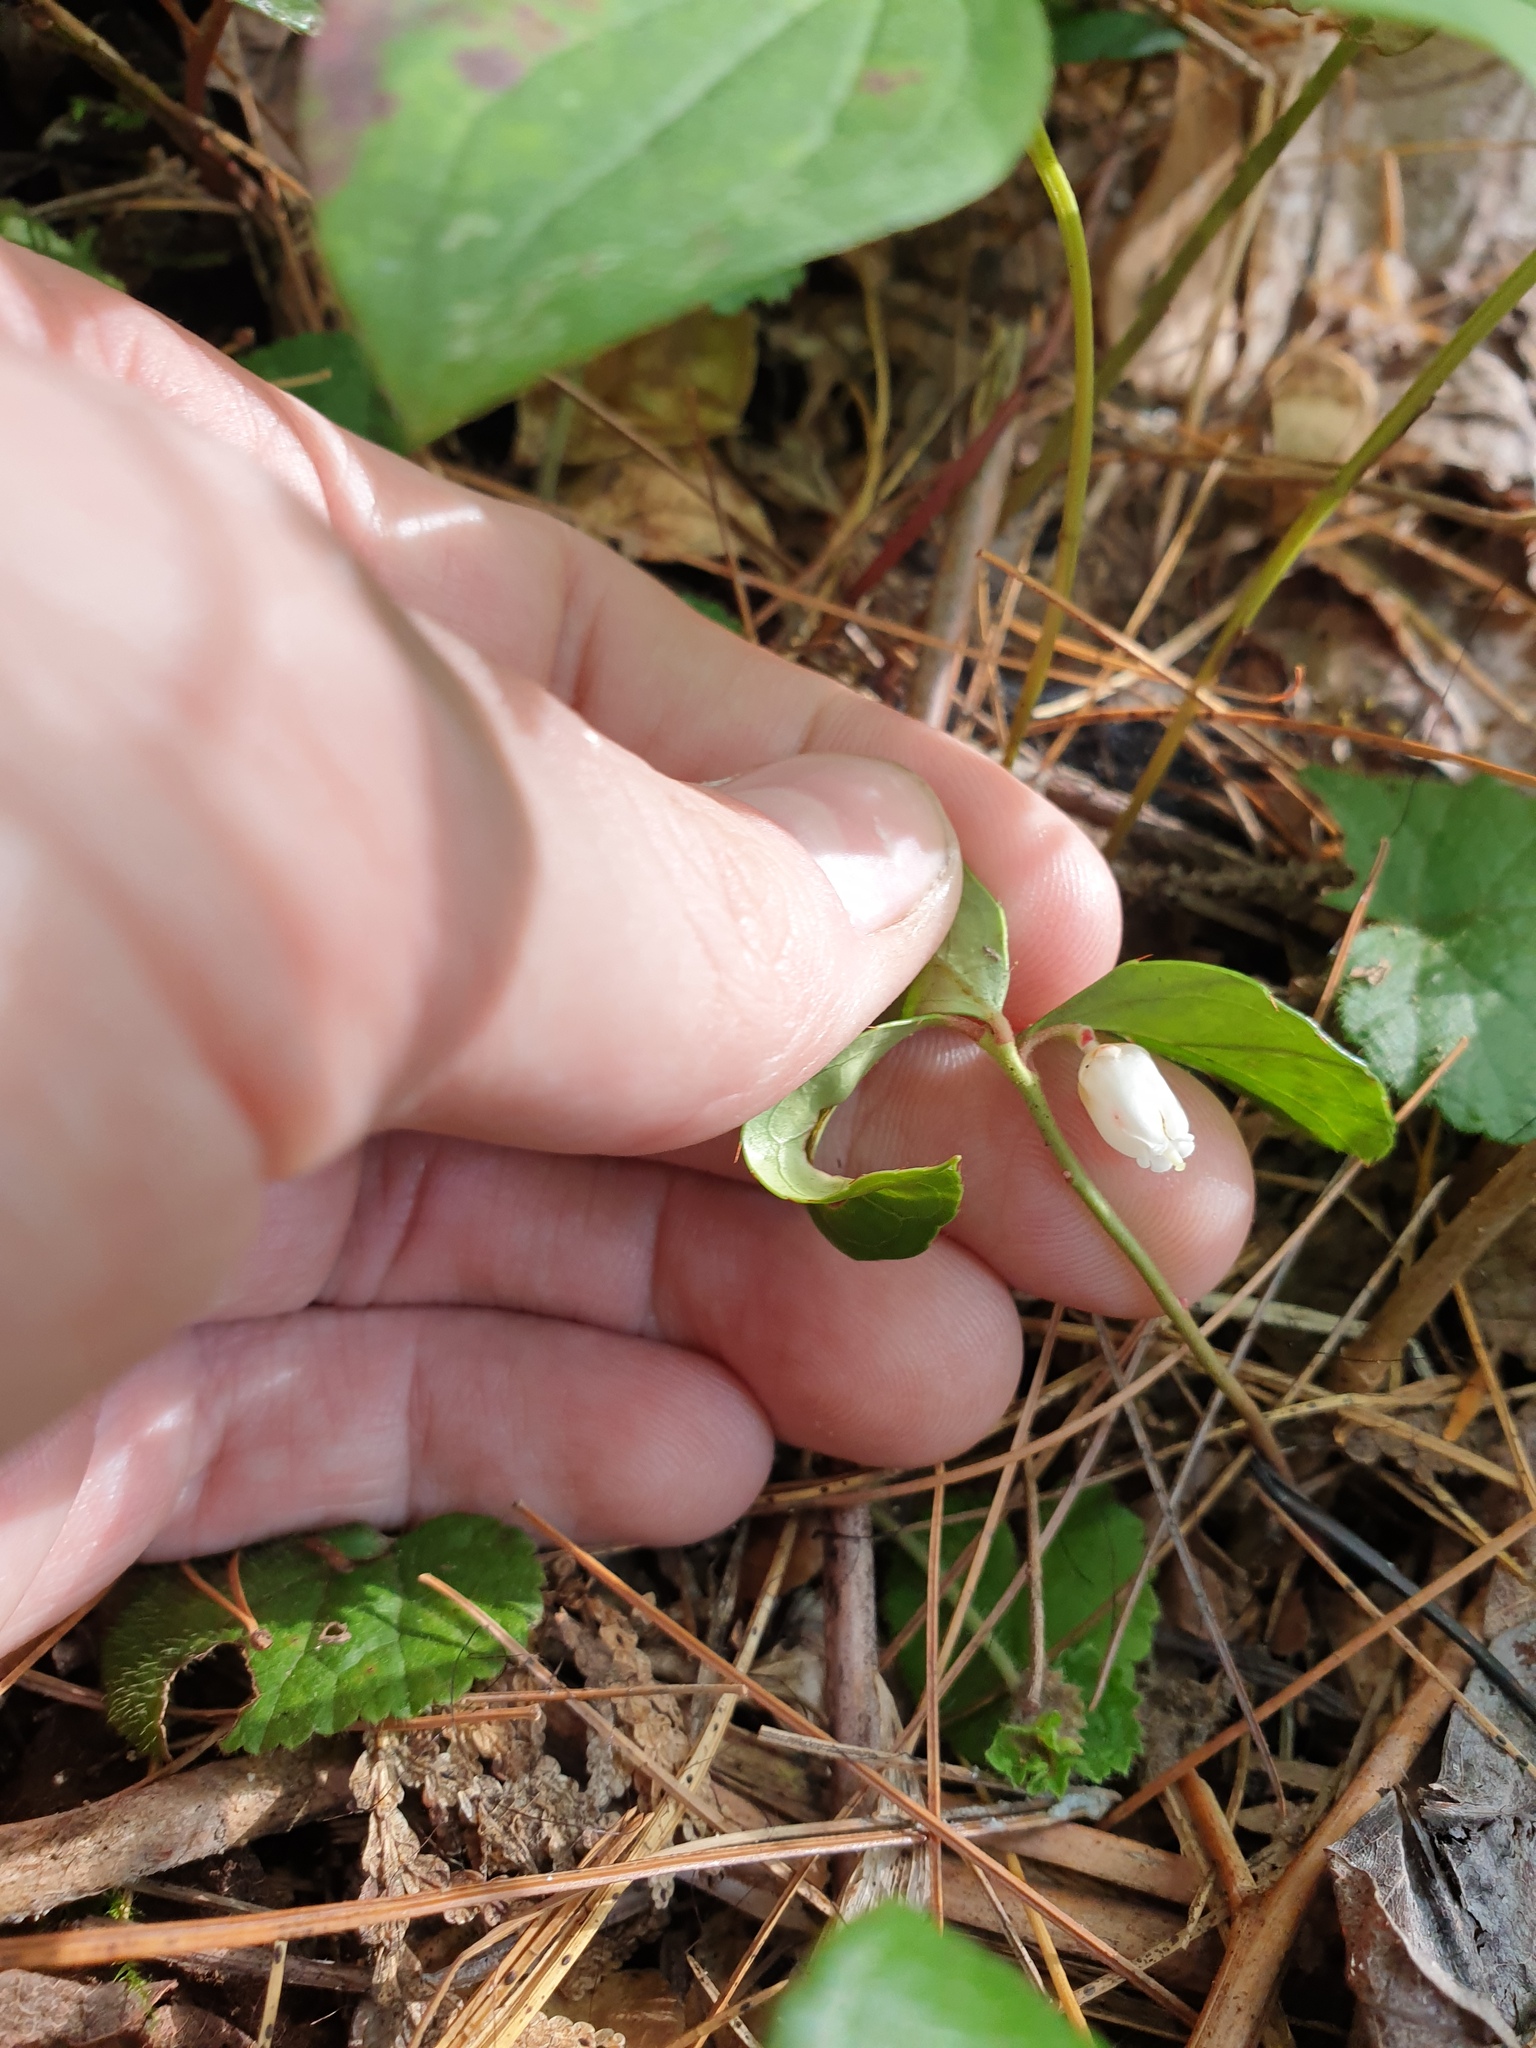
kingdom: Plantae
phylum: Tracheophyta
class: Magnoliopsida
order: Ericales
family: Ericaceae
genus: Gaultheria
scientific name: Gaultheria procumbens
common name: Checkerberry
